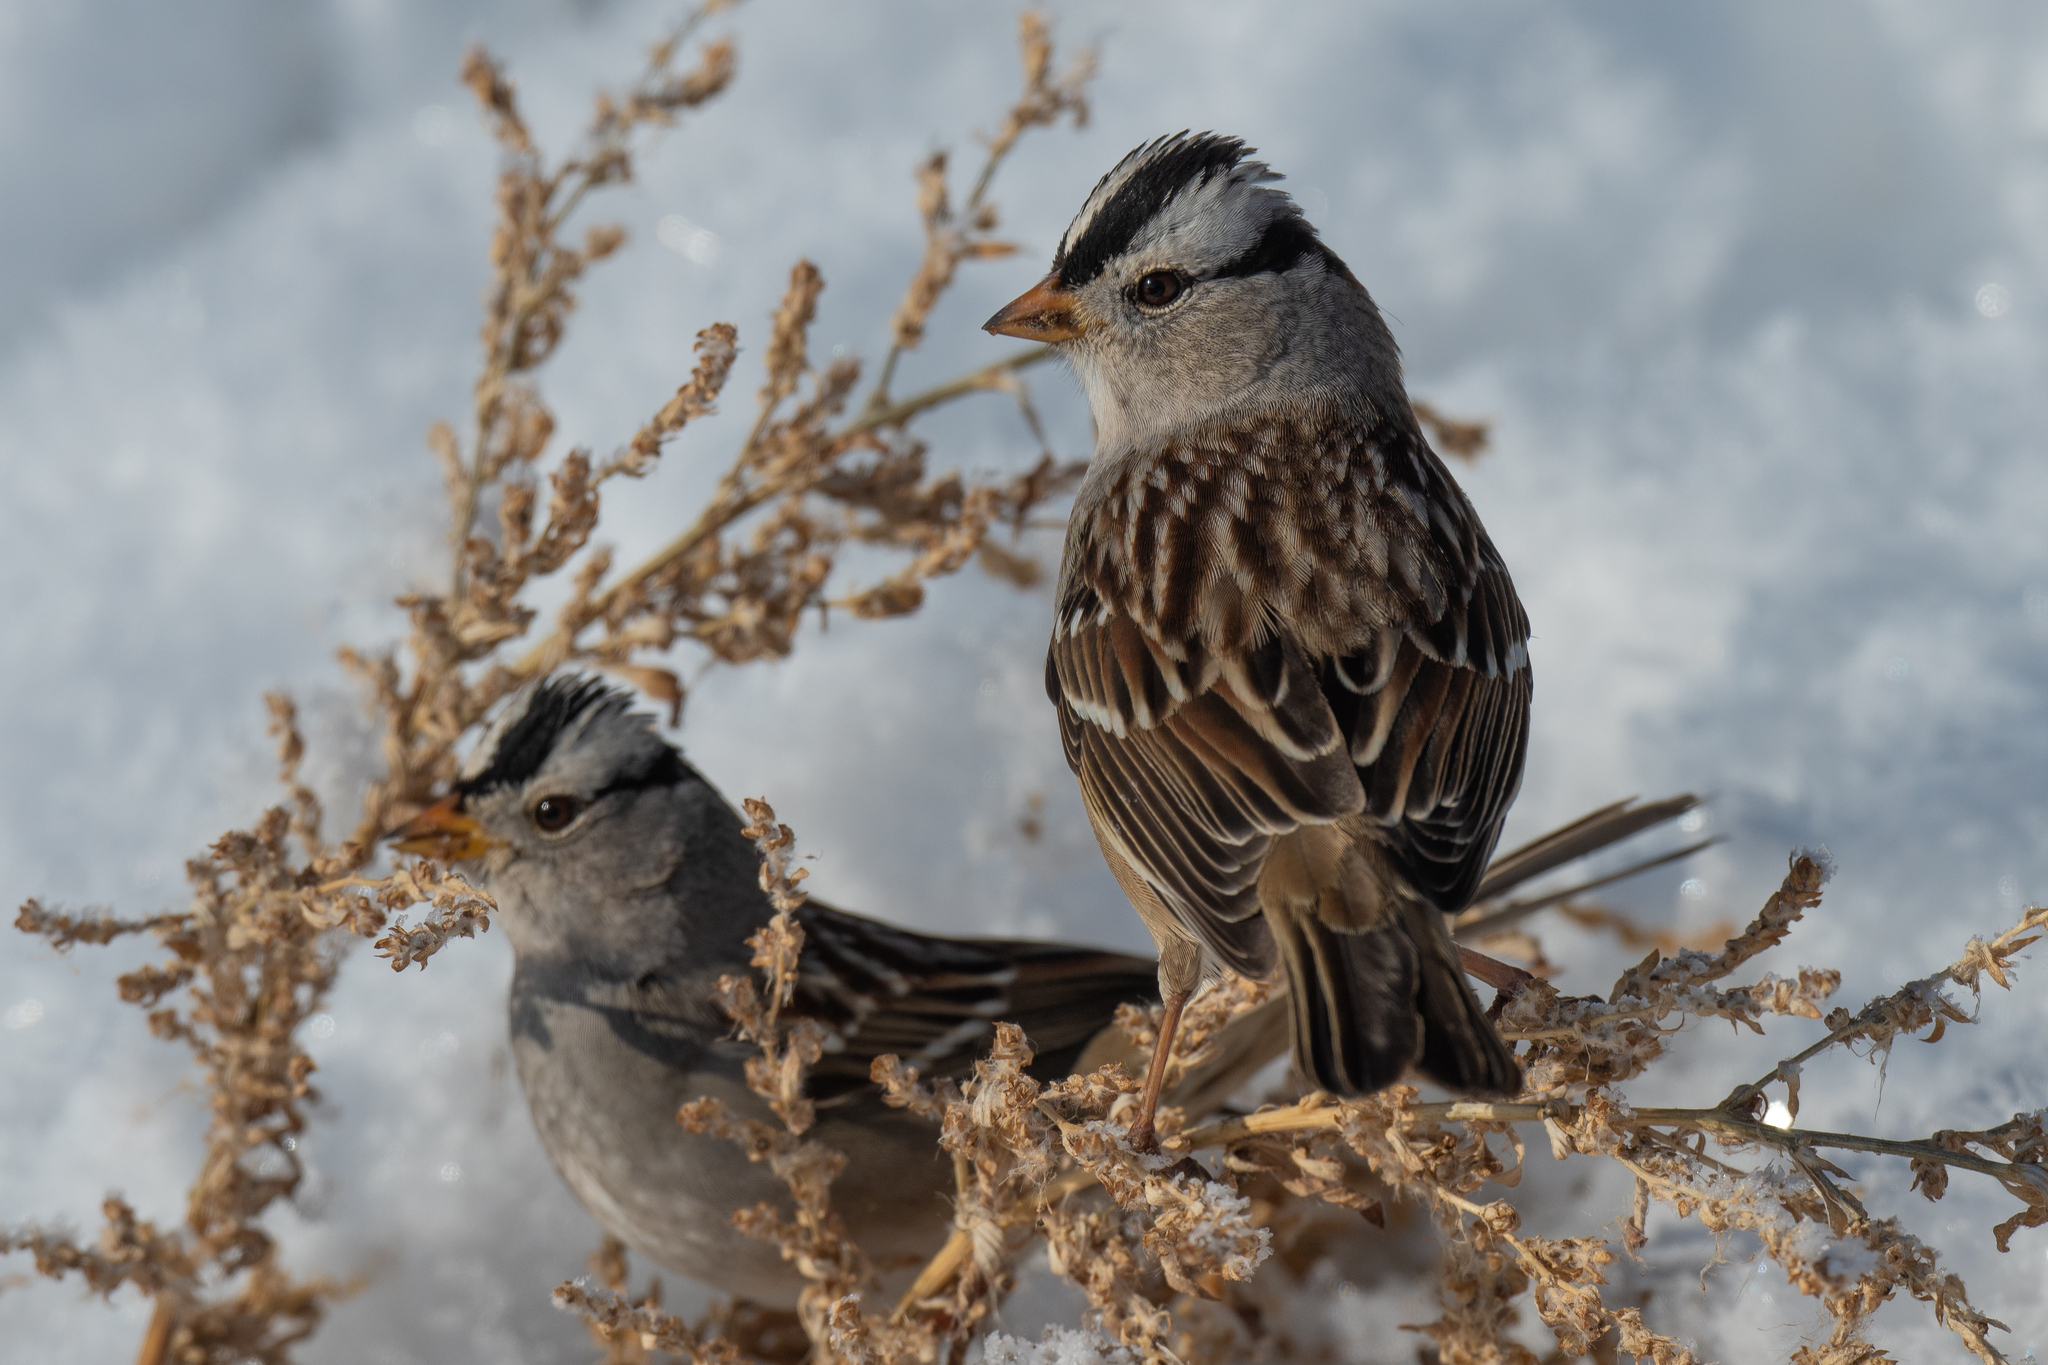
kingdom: Animalia
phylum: Chordata
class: Aves
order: Passeriformes
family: Passerellidae
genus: Zonotrichia
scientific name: Zonotrichia leucophrys
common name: White-crowned sparrow
